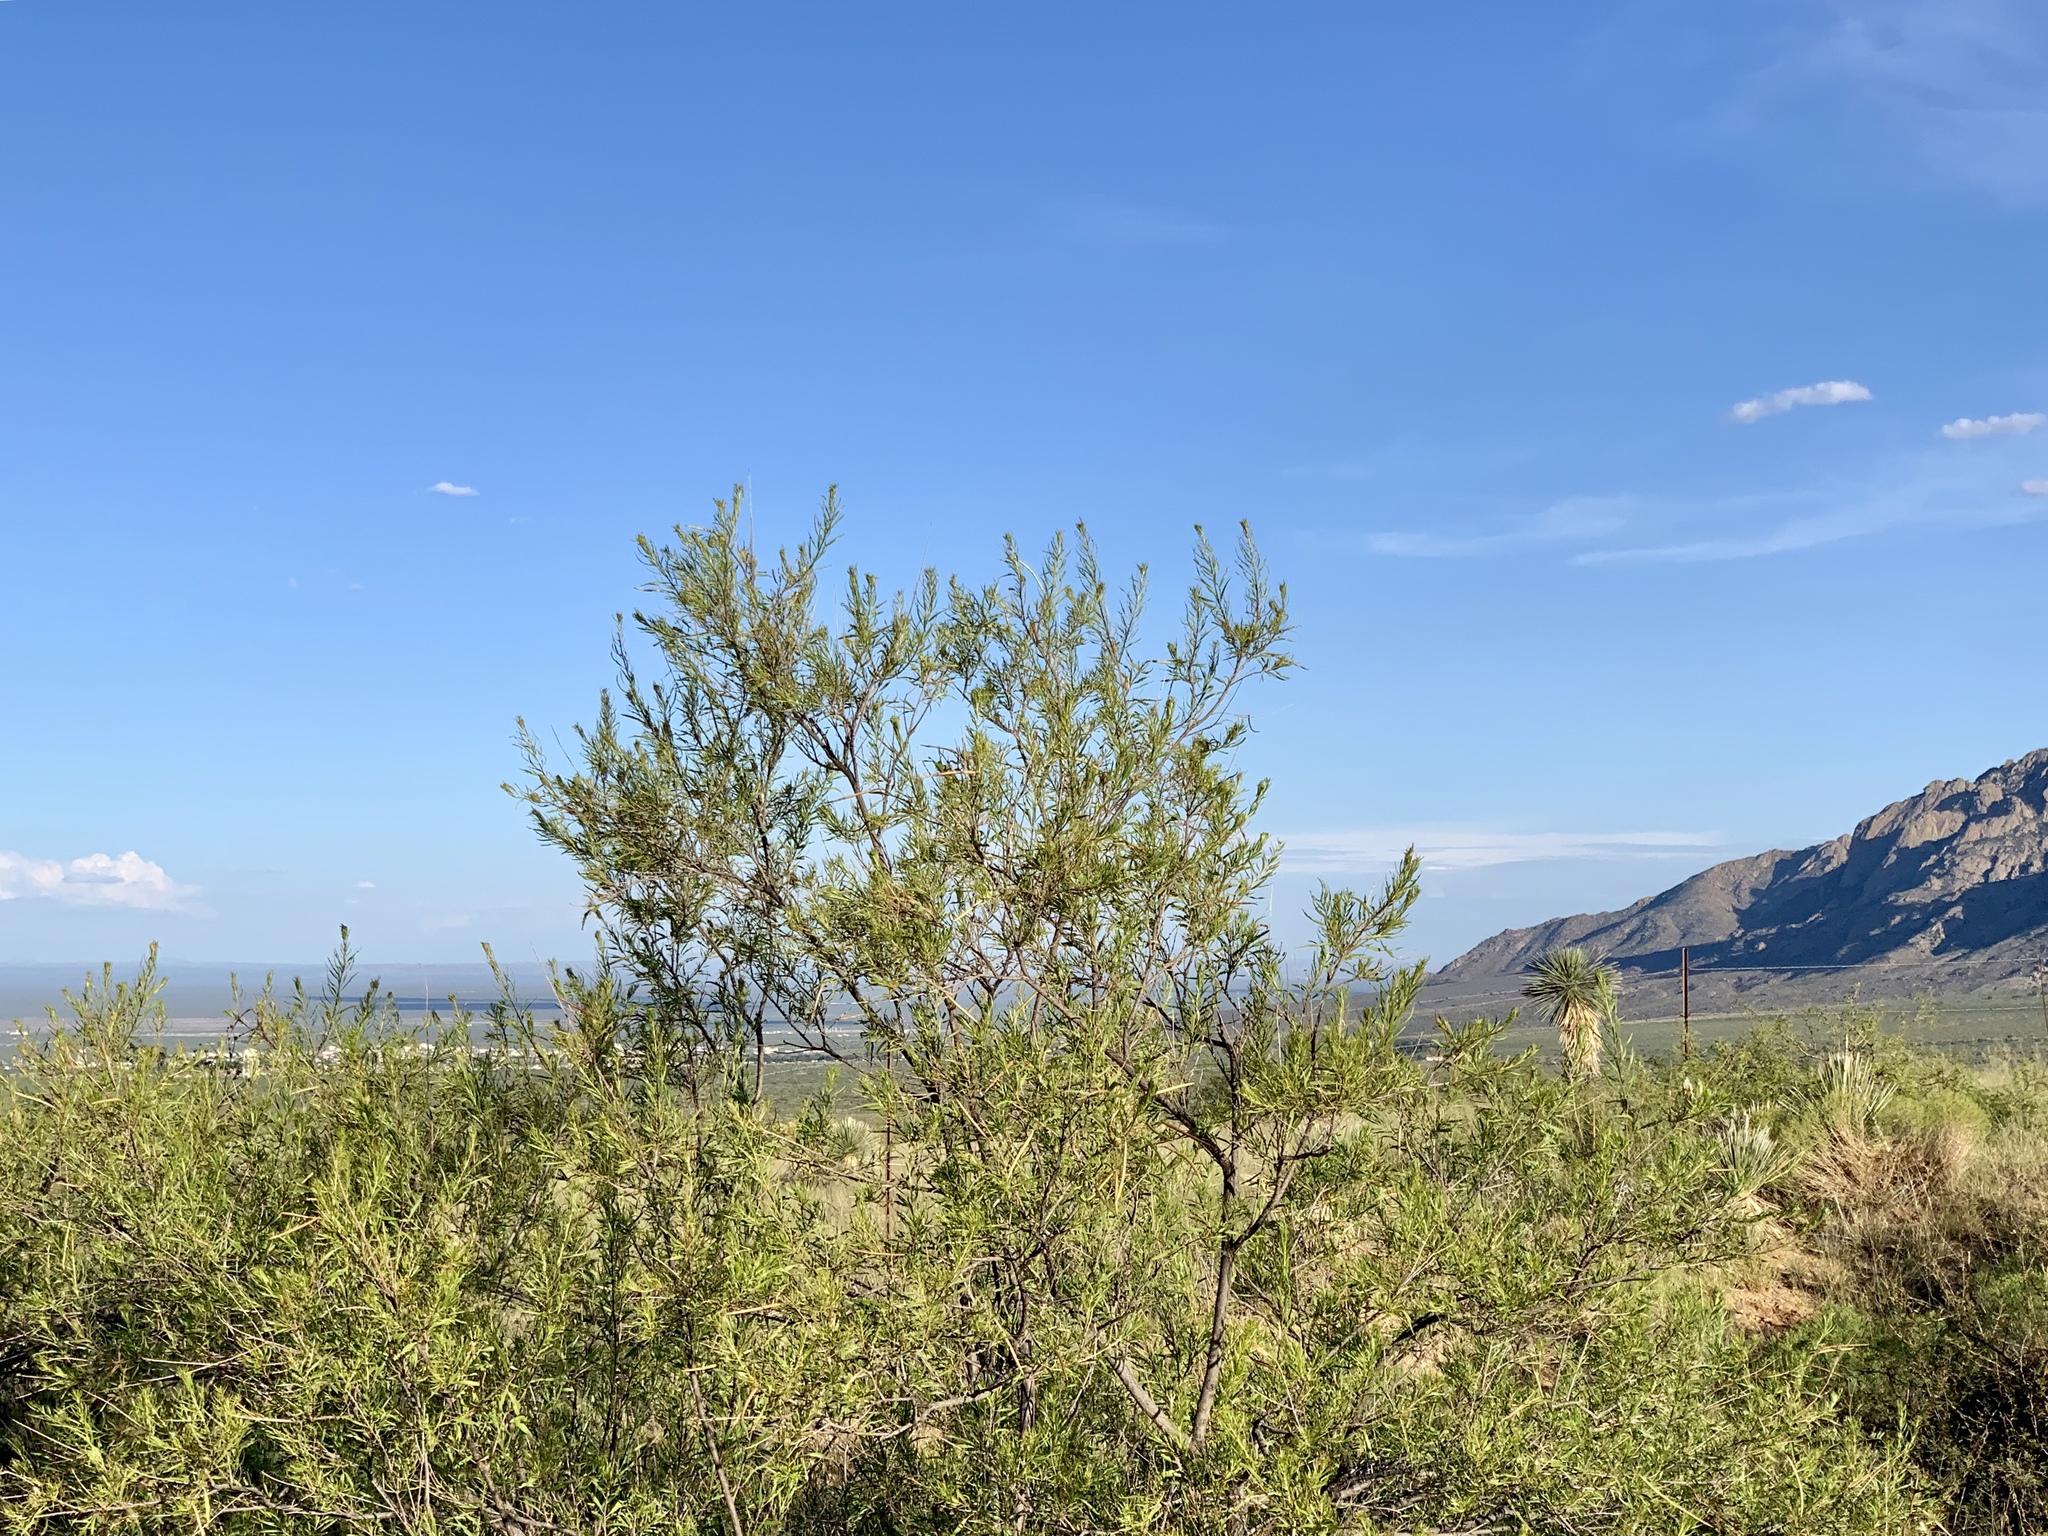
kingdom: Plantae
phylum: Tracheophyta
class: Magnoliopsida
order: Lamiales
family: Bignoniaceae
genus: Chilopsis
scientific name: Chilopsis linearis
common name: Desert-willow
